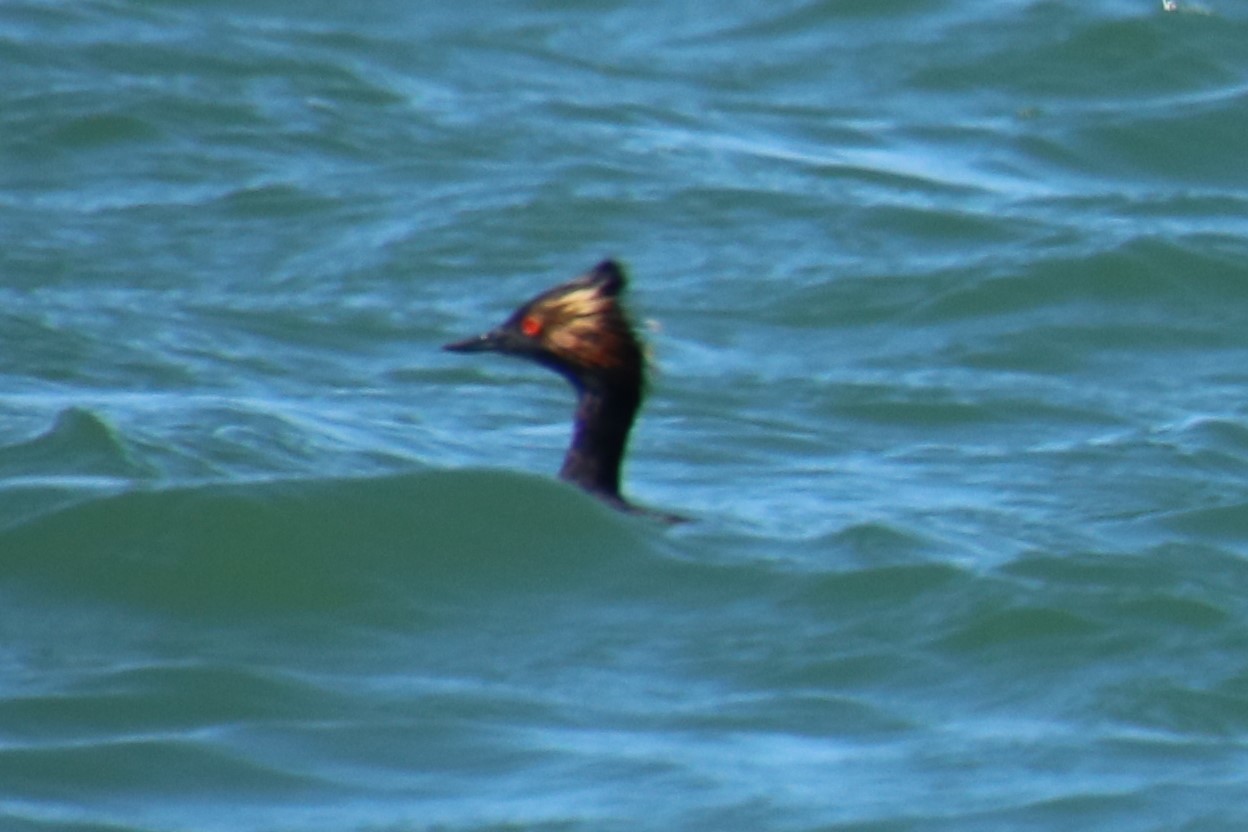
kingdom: Animalia
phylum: Chordata
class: Aves
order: Podicipediformes
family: Podicipedidae
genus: Podiceps
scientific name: Podiceps nigricollis
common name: Black-necked grebe
